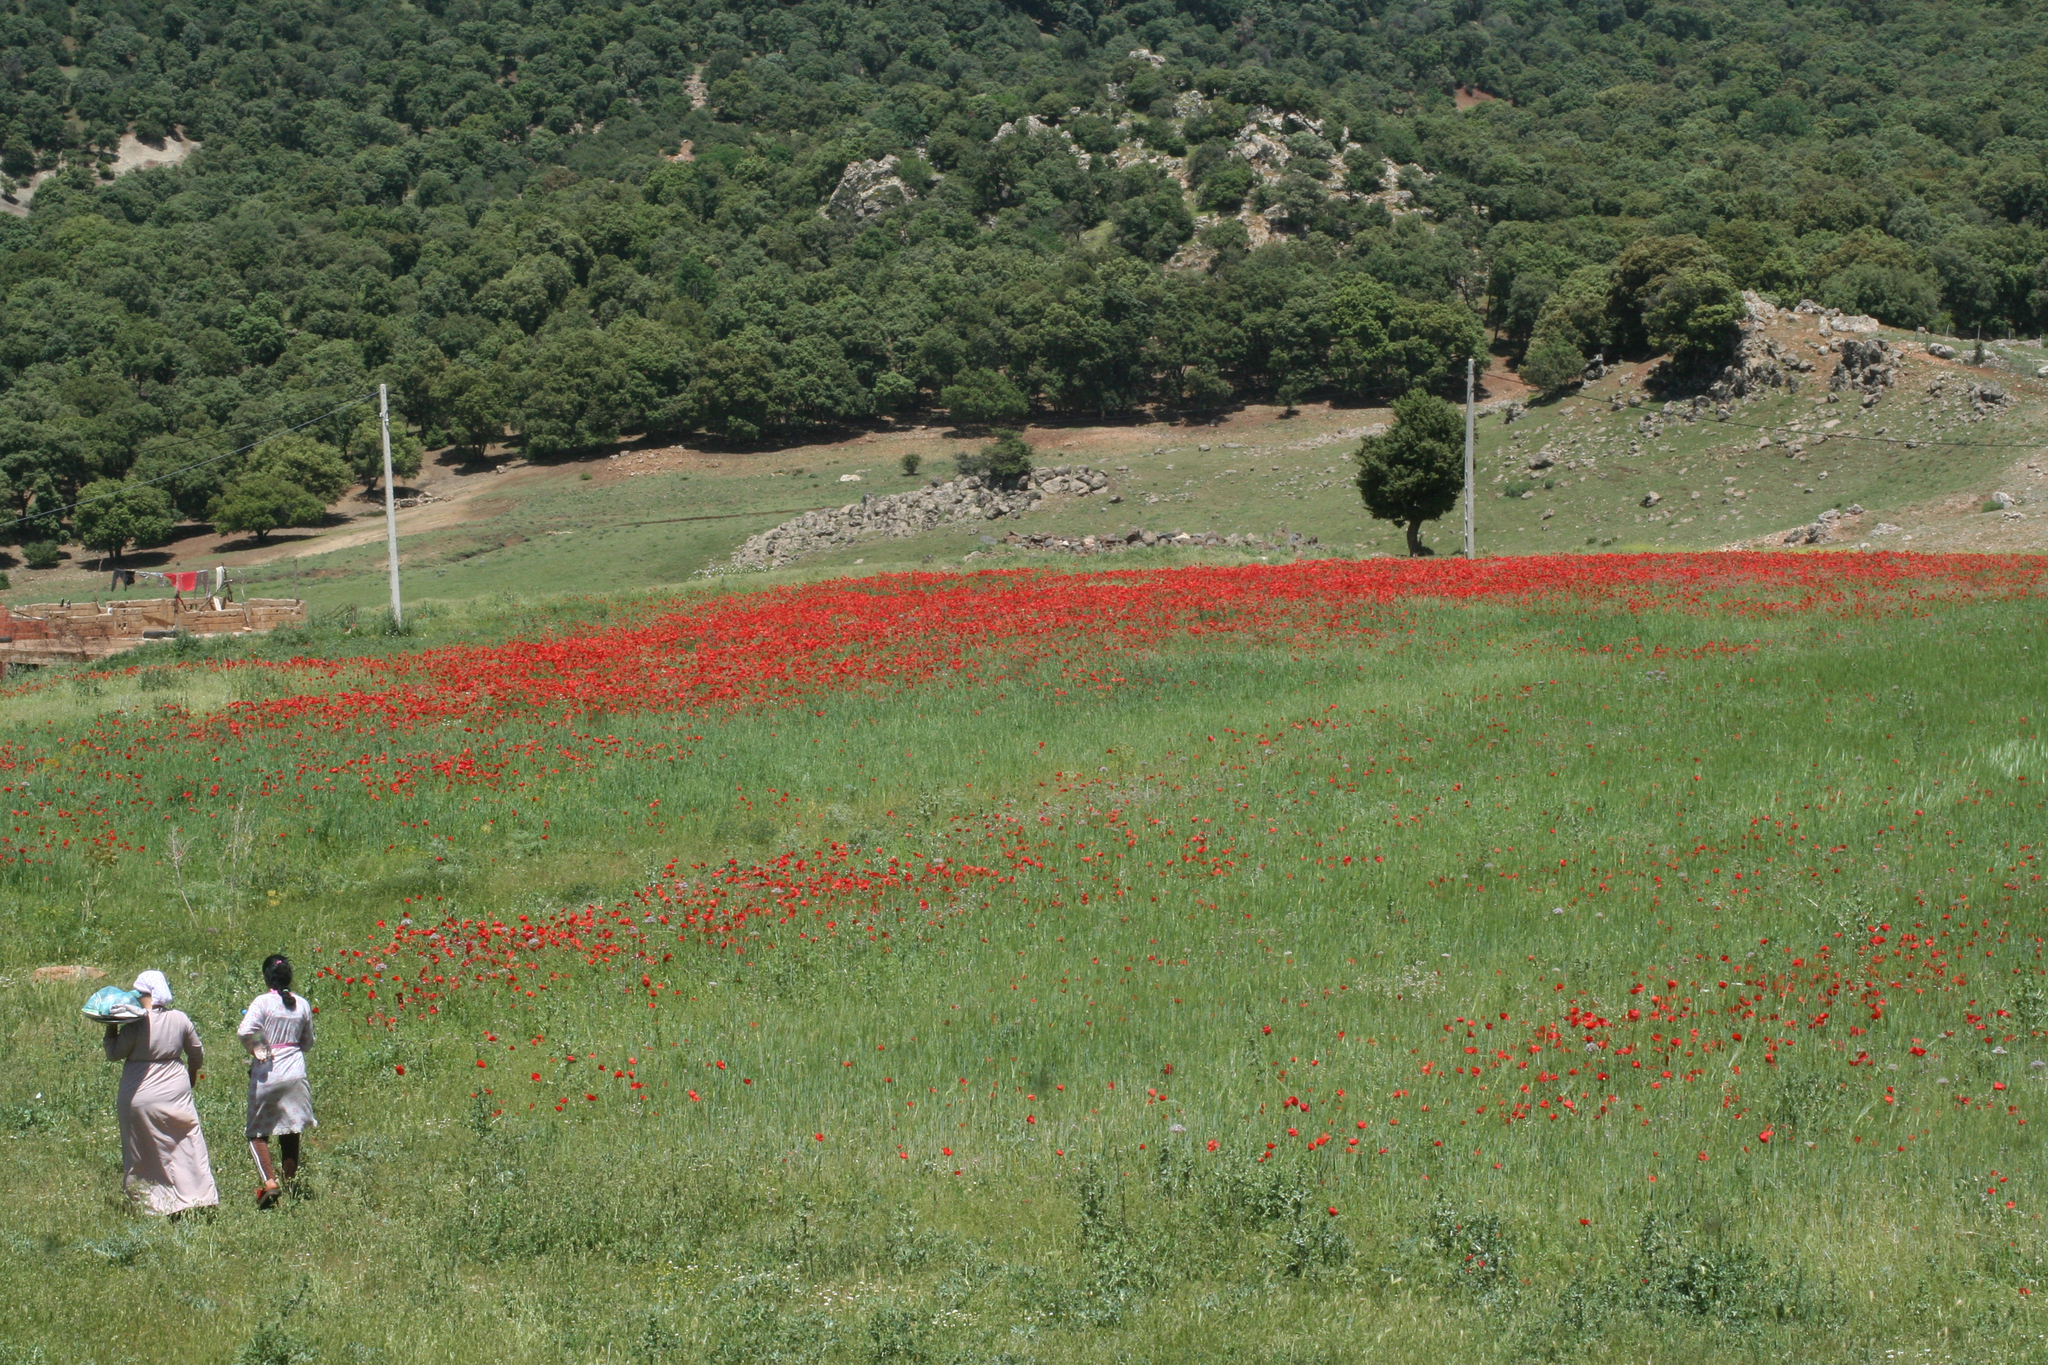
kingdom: Plantae
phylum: Tracheophyta
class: Magnoliopsida
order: Ranunculales
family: Papaveraceae
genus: Papaver
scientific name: Papaver rhoeas
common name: Corn poppy
